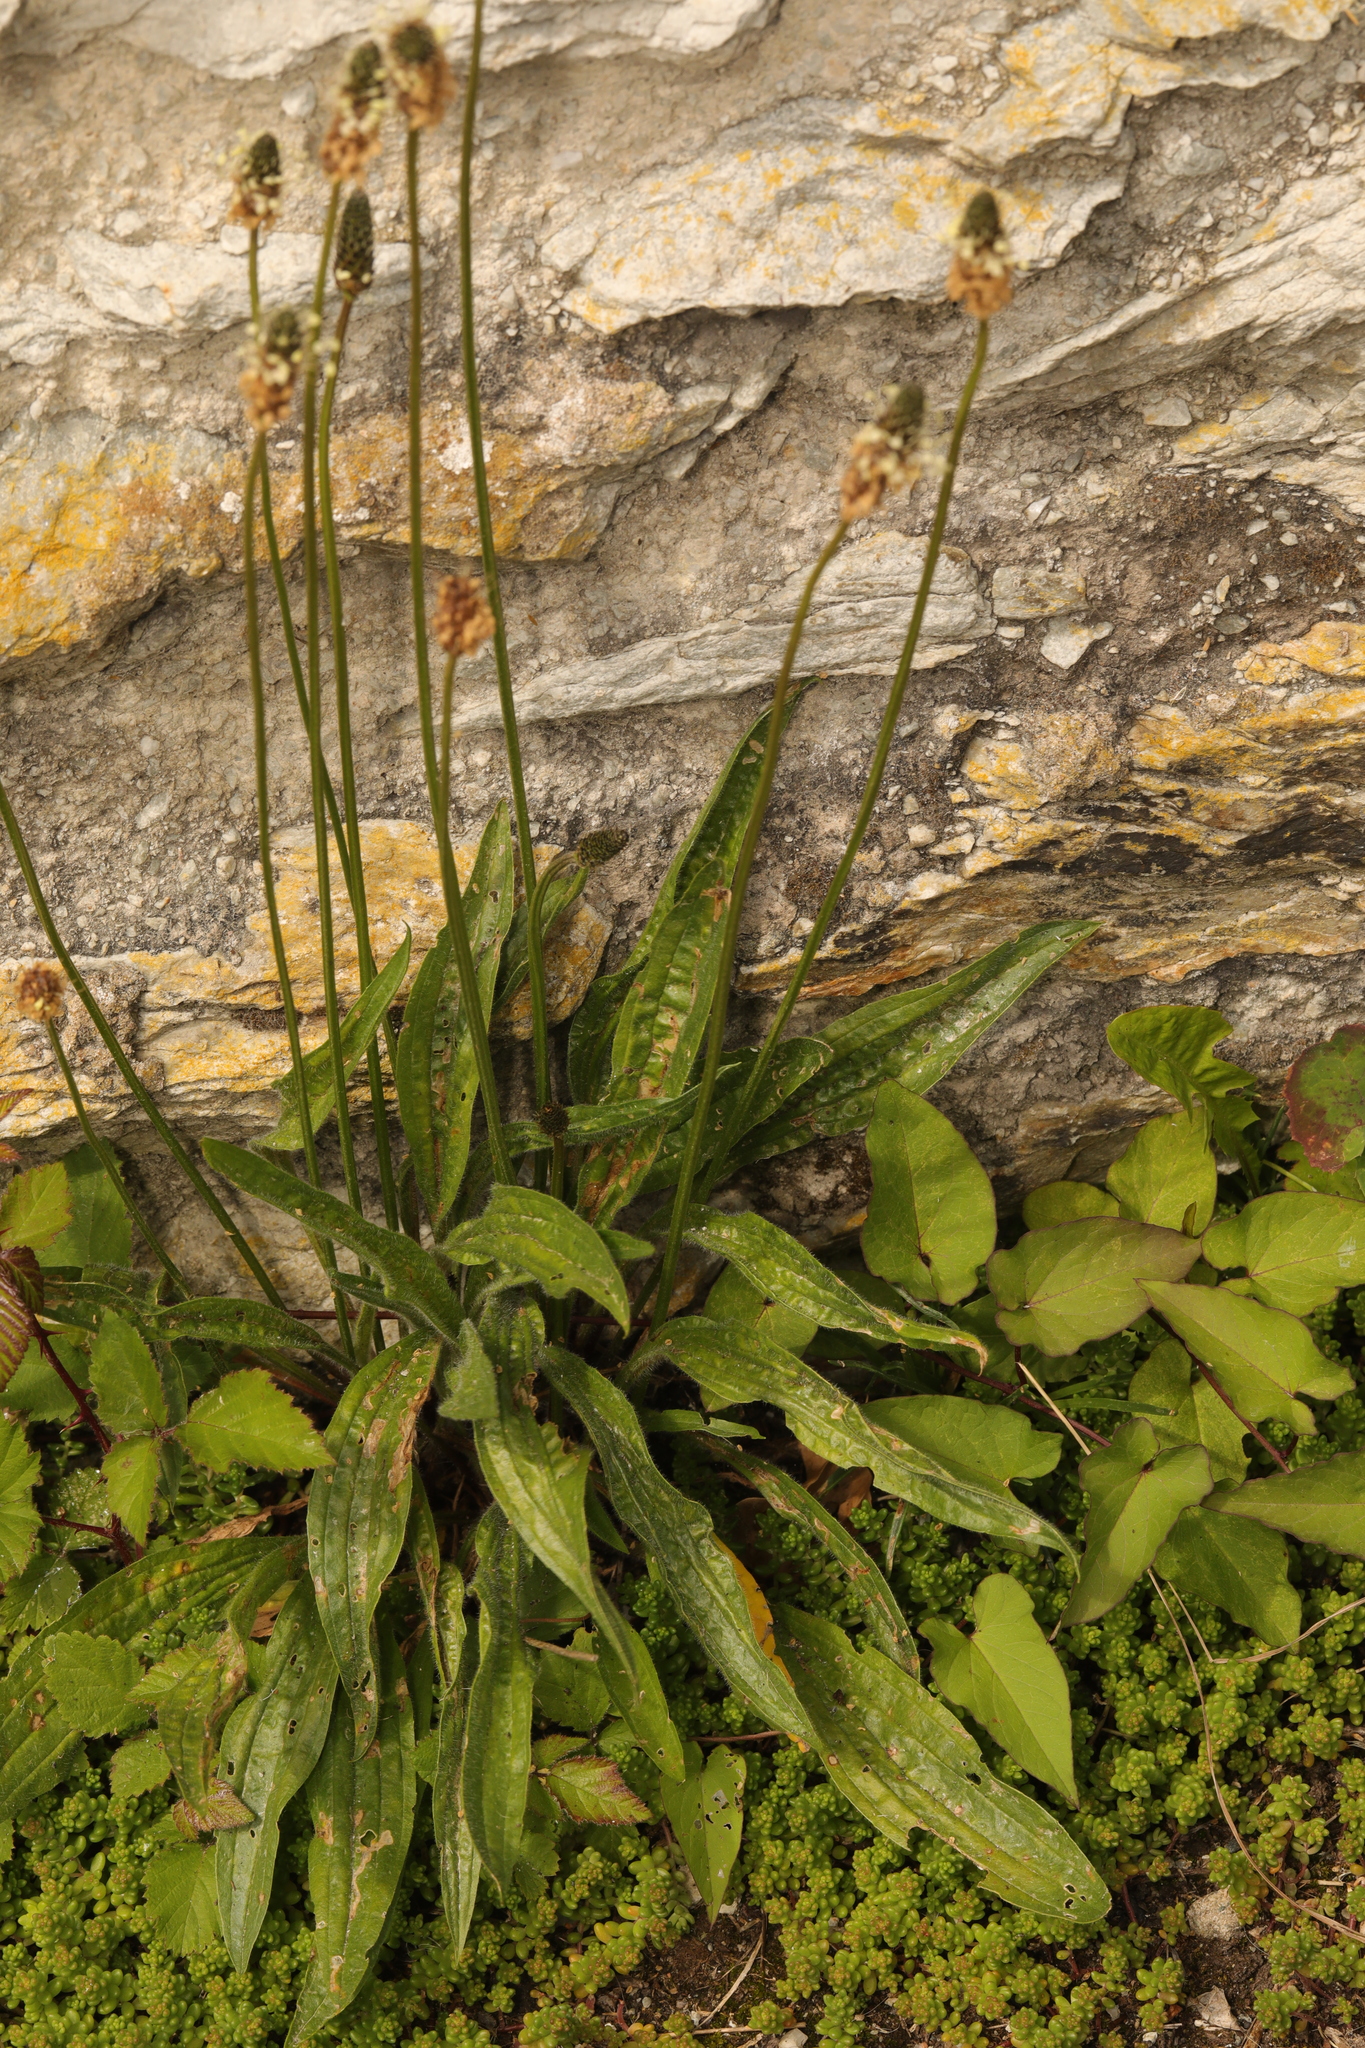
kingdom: Plantae
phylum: Tracheophyta
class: Magnoliopsida
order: Lamiales
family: Plantaginaceae
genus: Plantago
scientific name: Plantago lanceolata
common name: Ribwort plantain
